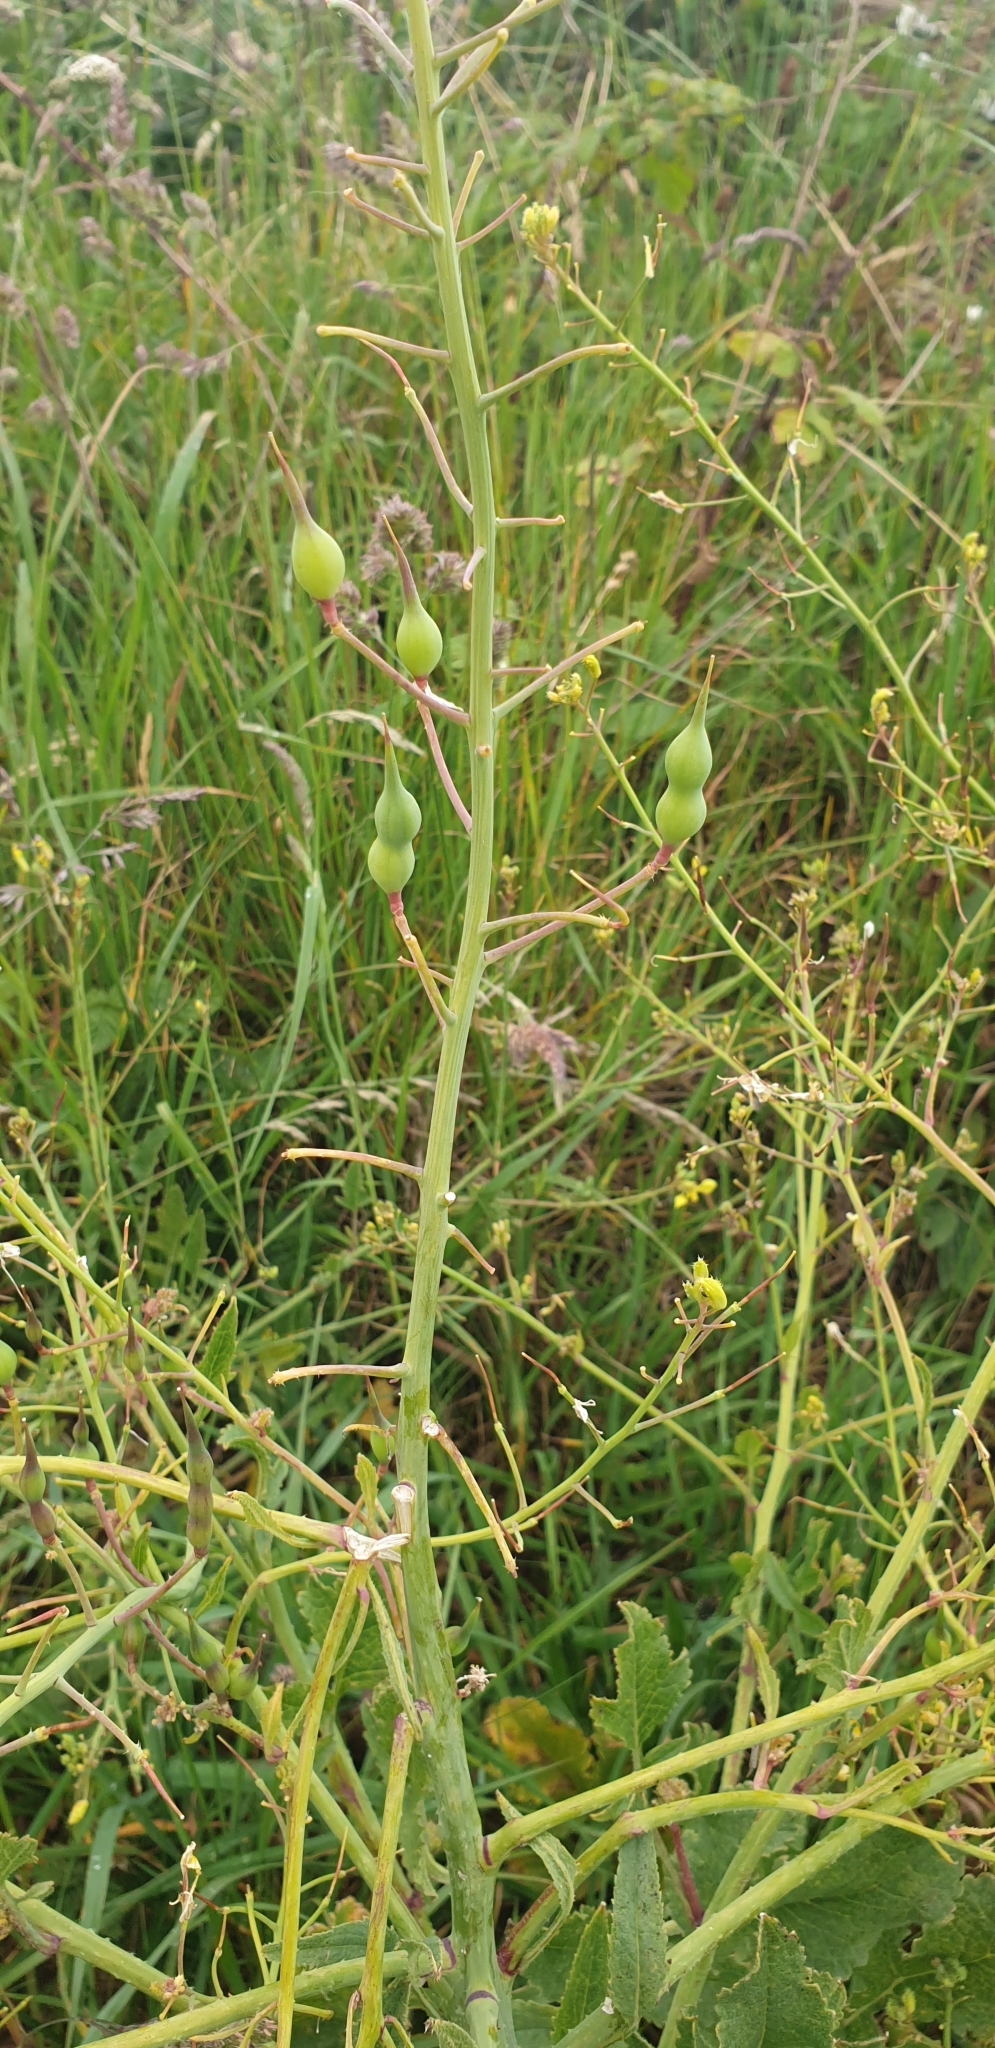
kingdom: Plantae
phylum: Tracheophyta
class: Magnoliopsida
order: Brassicales
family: Brassicaceae
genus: Raphanus
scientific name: Raphanus raphanistrum
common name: Wild radish
